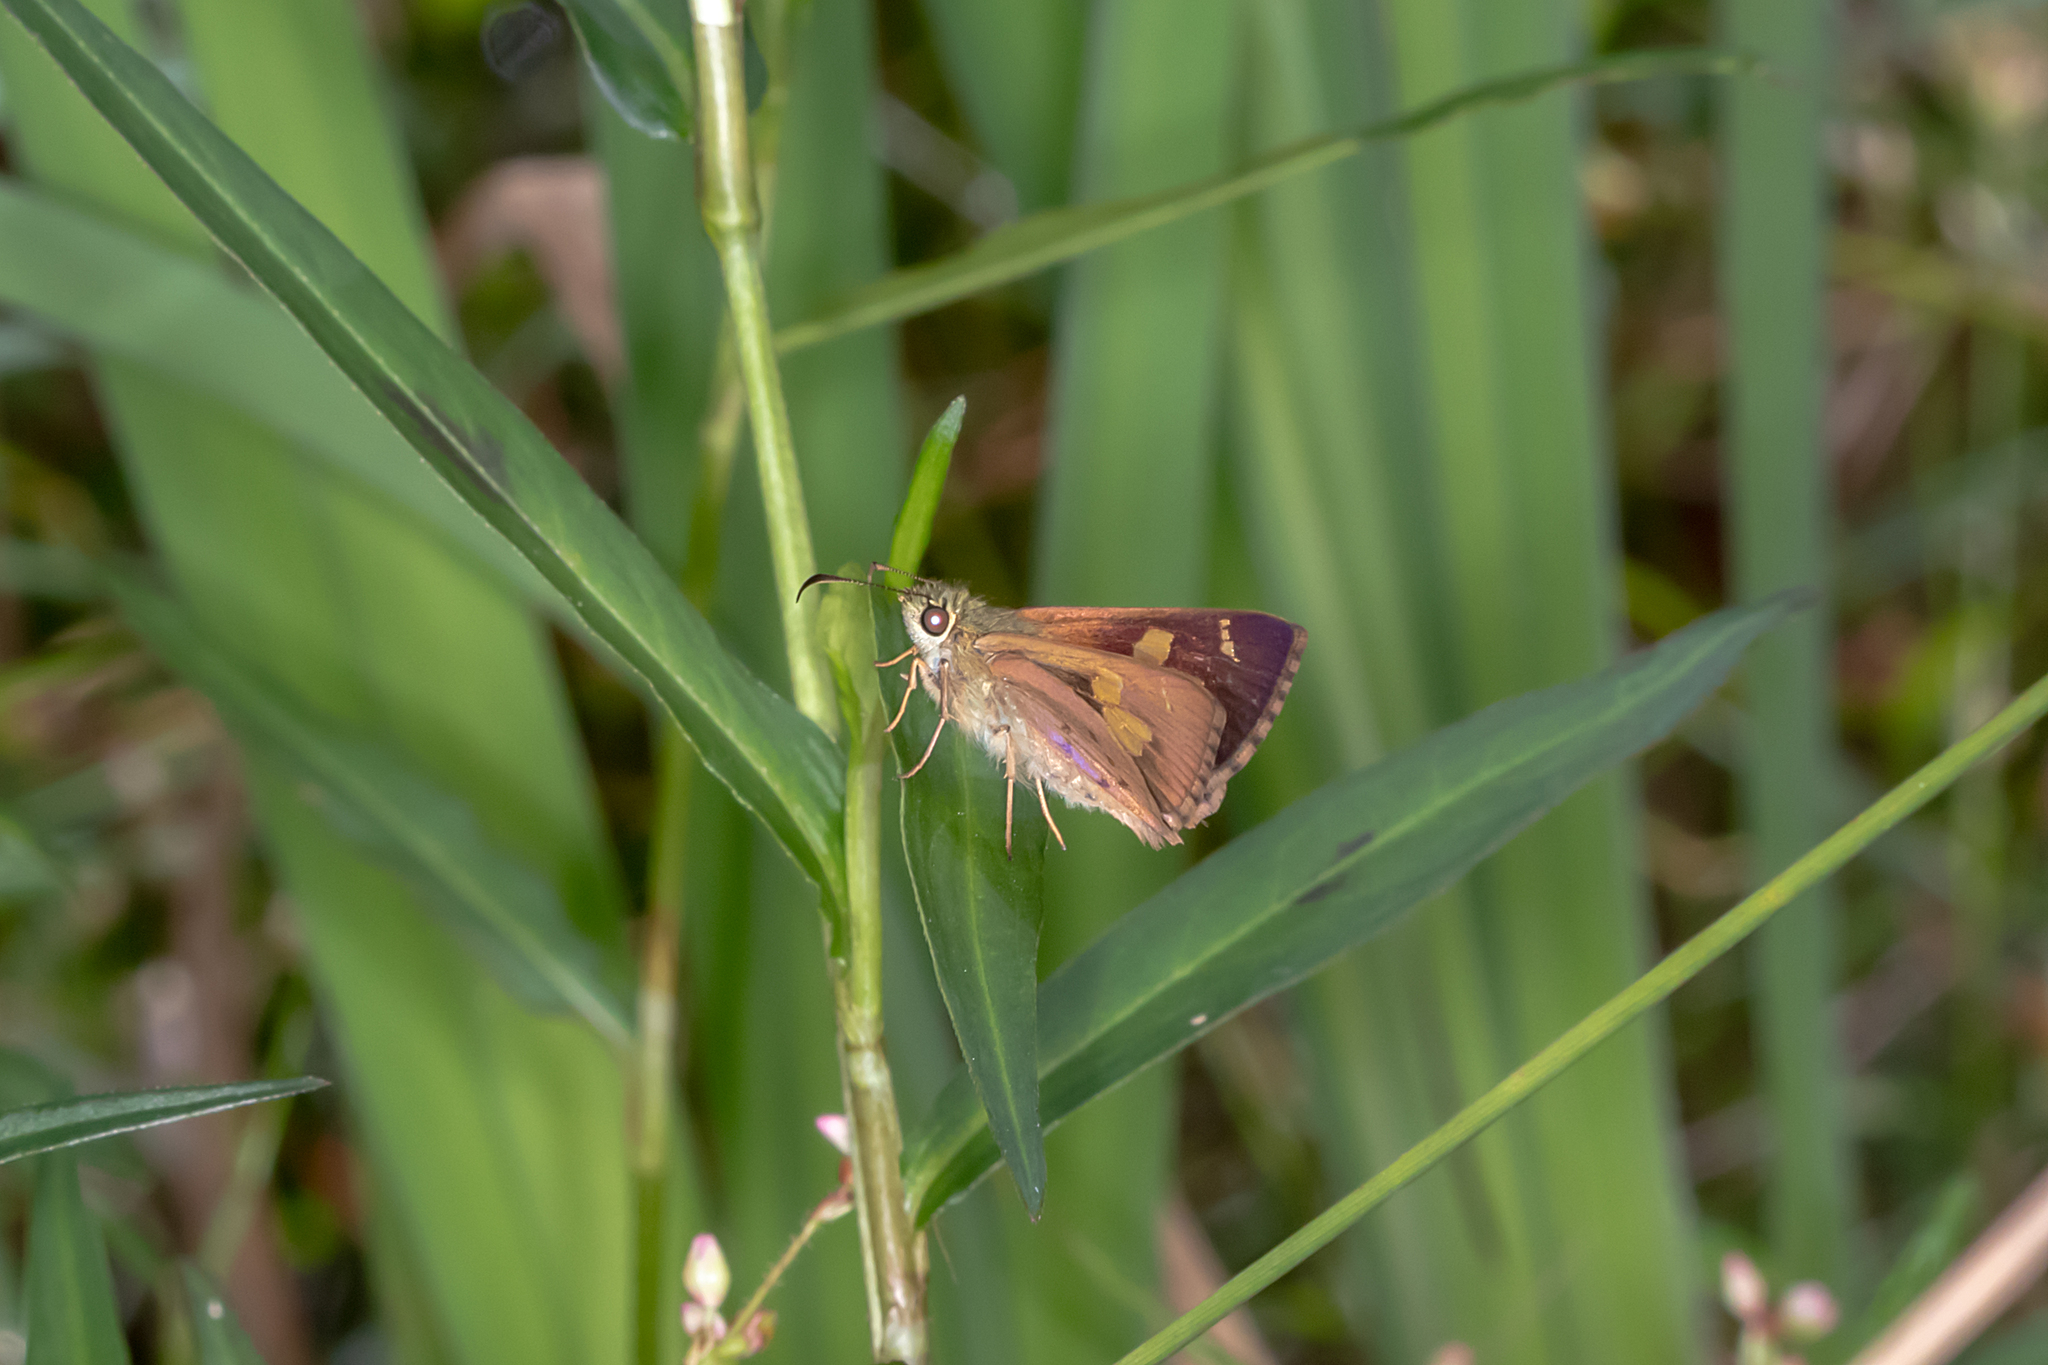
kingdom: Animalia
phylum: Arthropoda
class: Insecta
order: Lepidoptera
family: Hesperiidae
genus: Toxidia
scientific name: Toxidia
